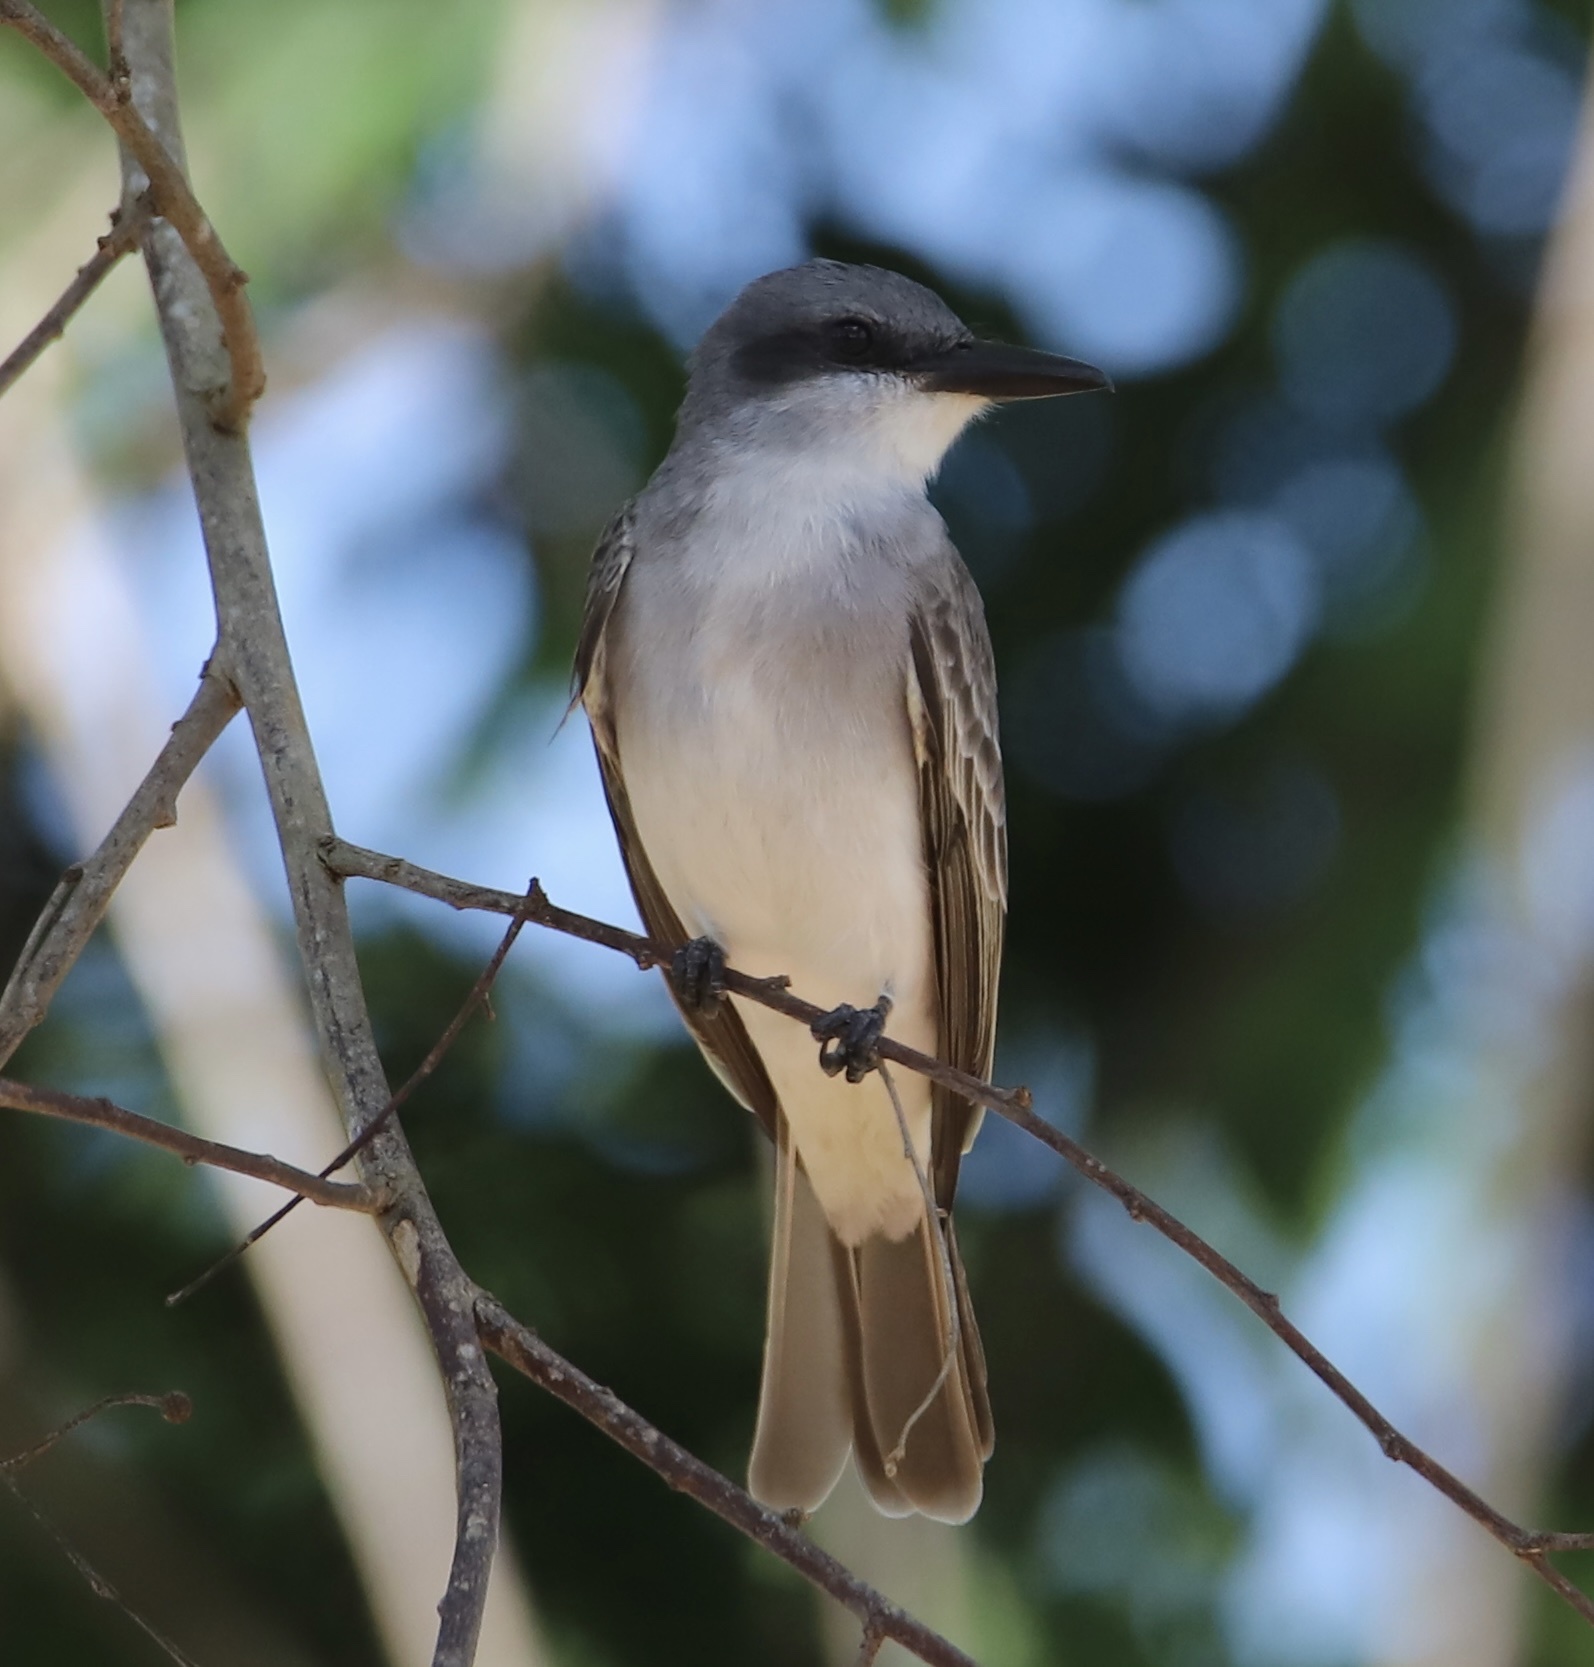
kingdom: Animalia
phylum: Chordata
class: Aves
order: Passeriformes
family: Tyrannidae
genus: Tyrannus
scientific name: Tyrannus dominicensis
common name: Gray kingbird
